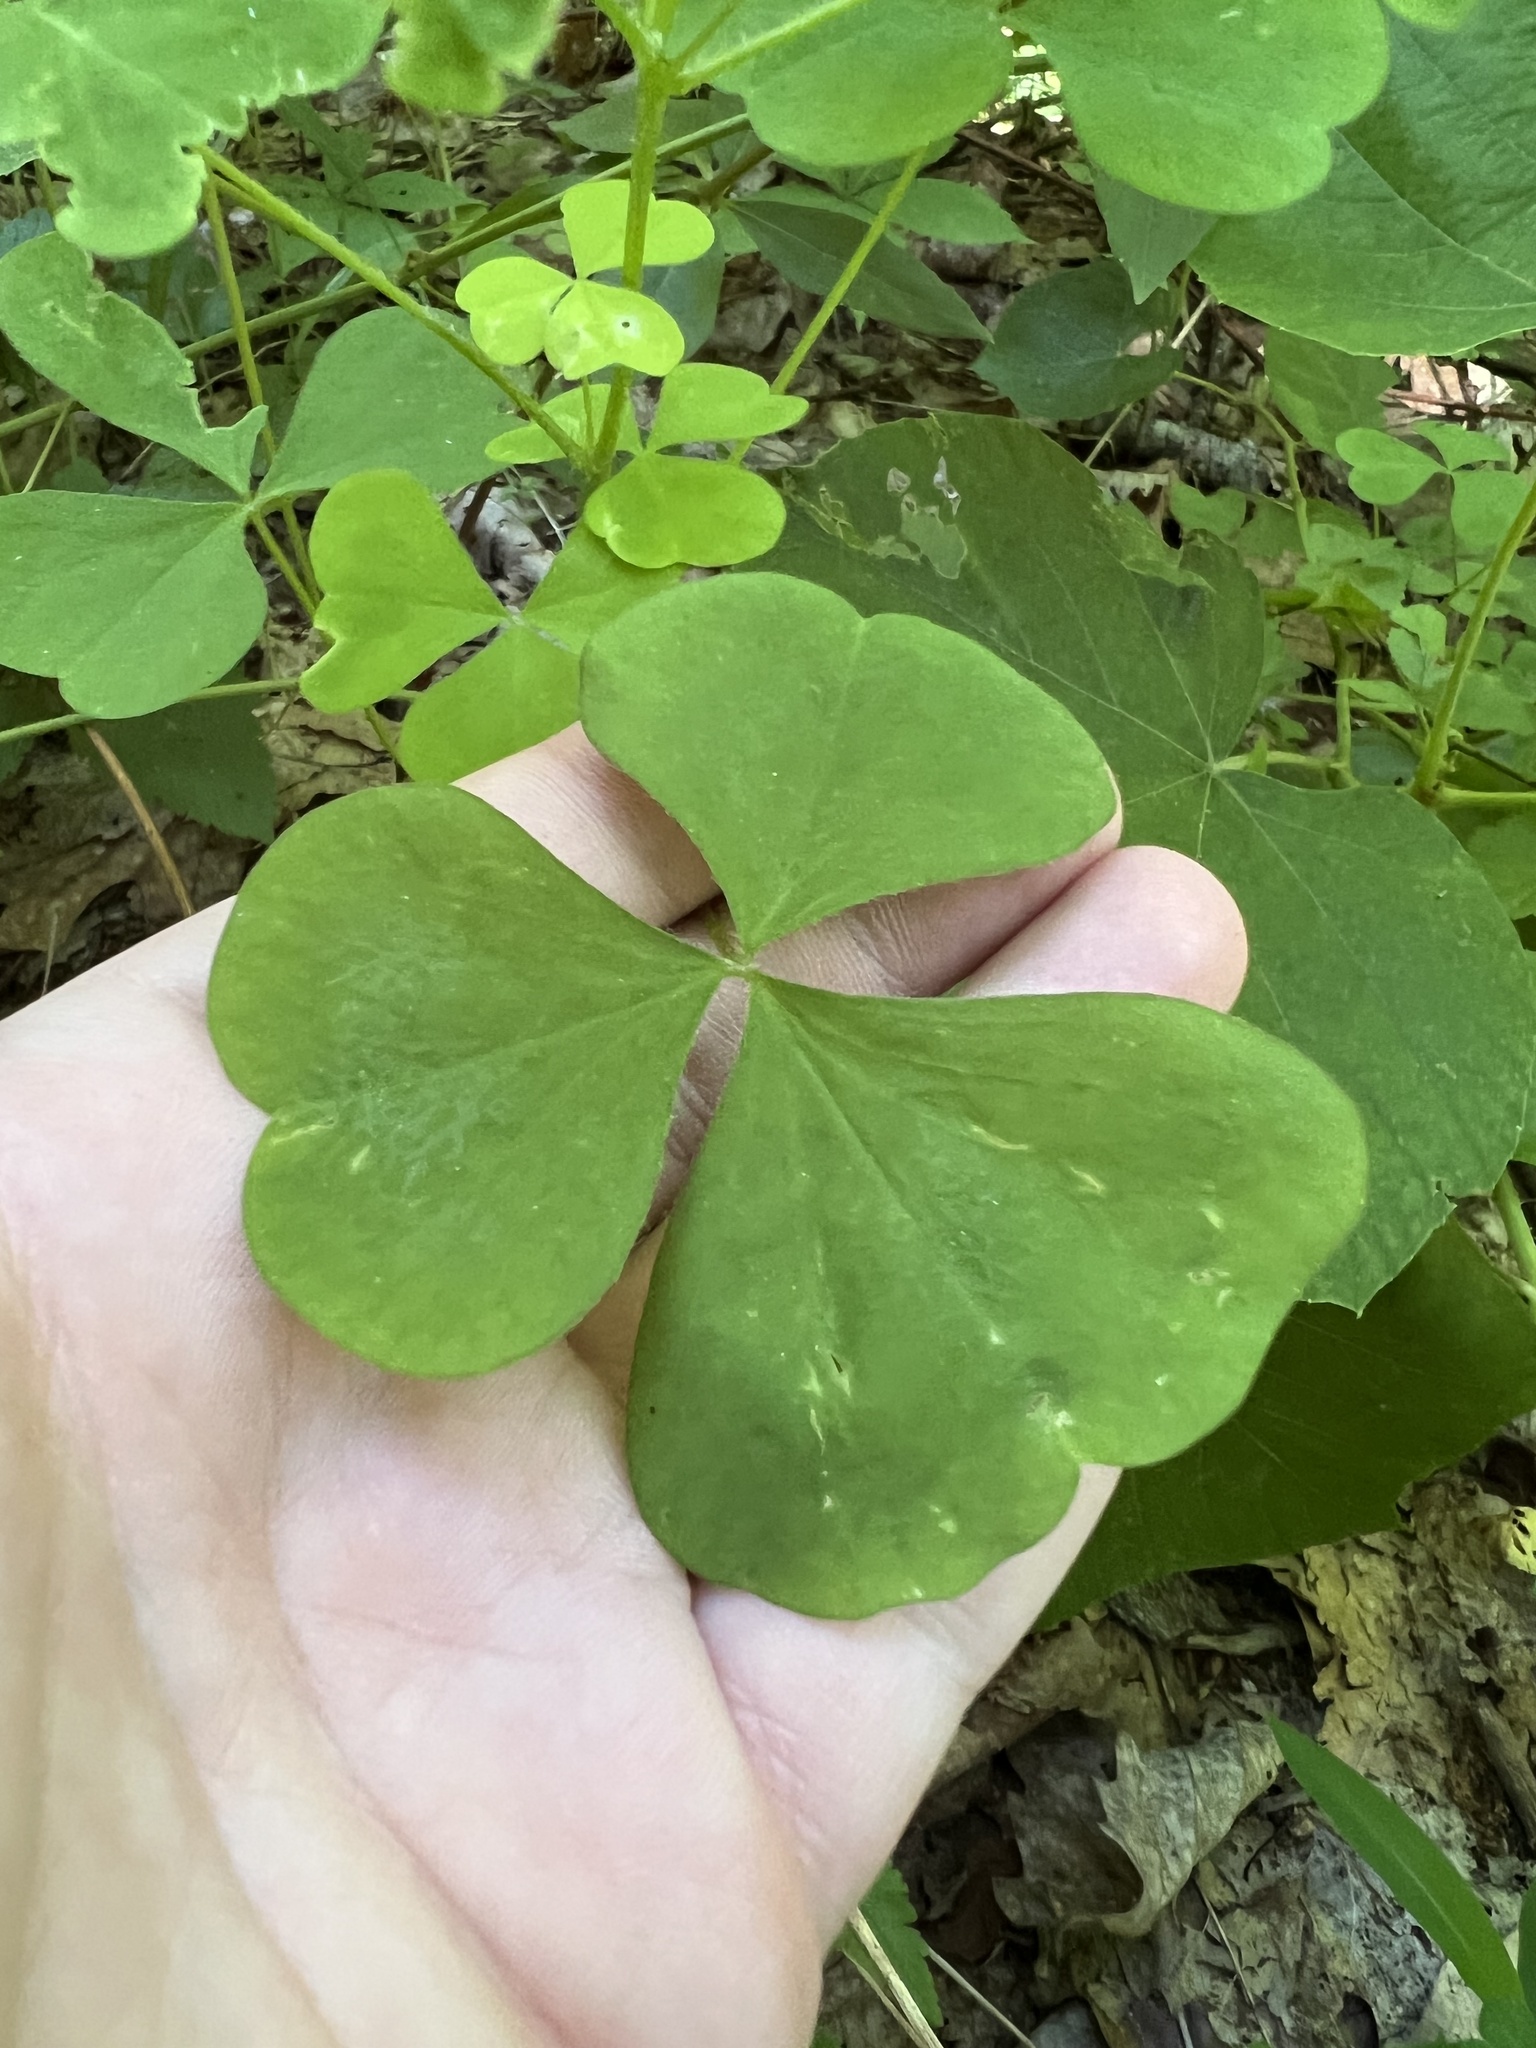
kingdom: Plantae
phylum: Tracheophyta
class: Magnoliopsida
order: Oxalidales
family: Oxalidaceae
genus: Oxalis
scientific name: Oxalis grandis
